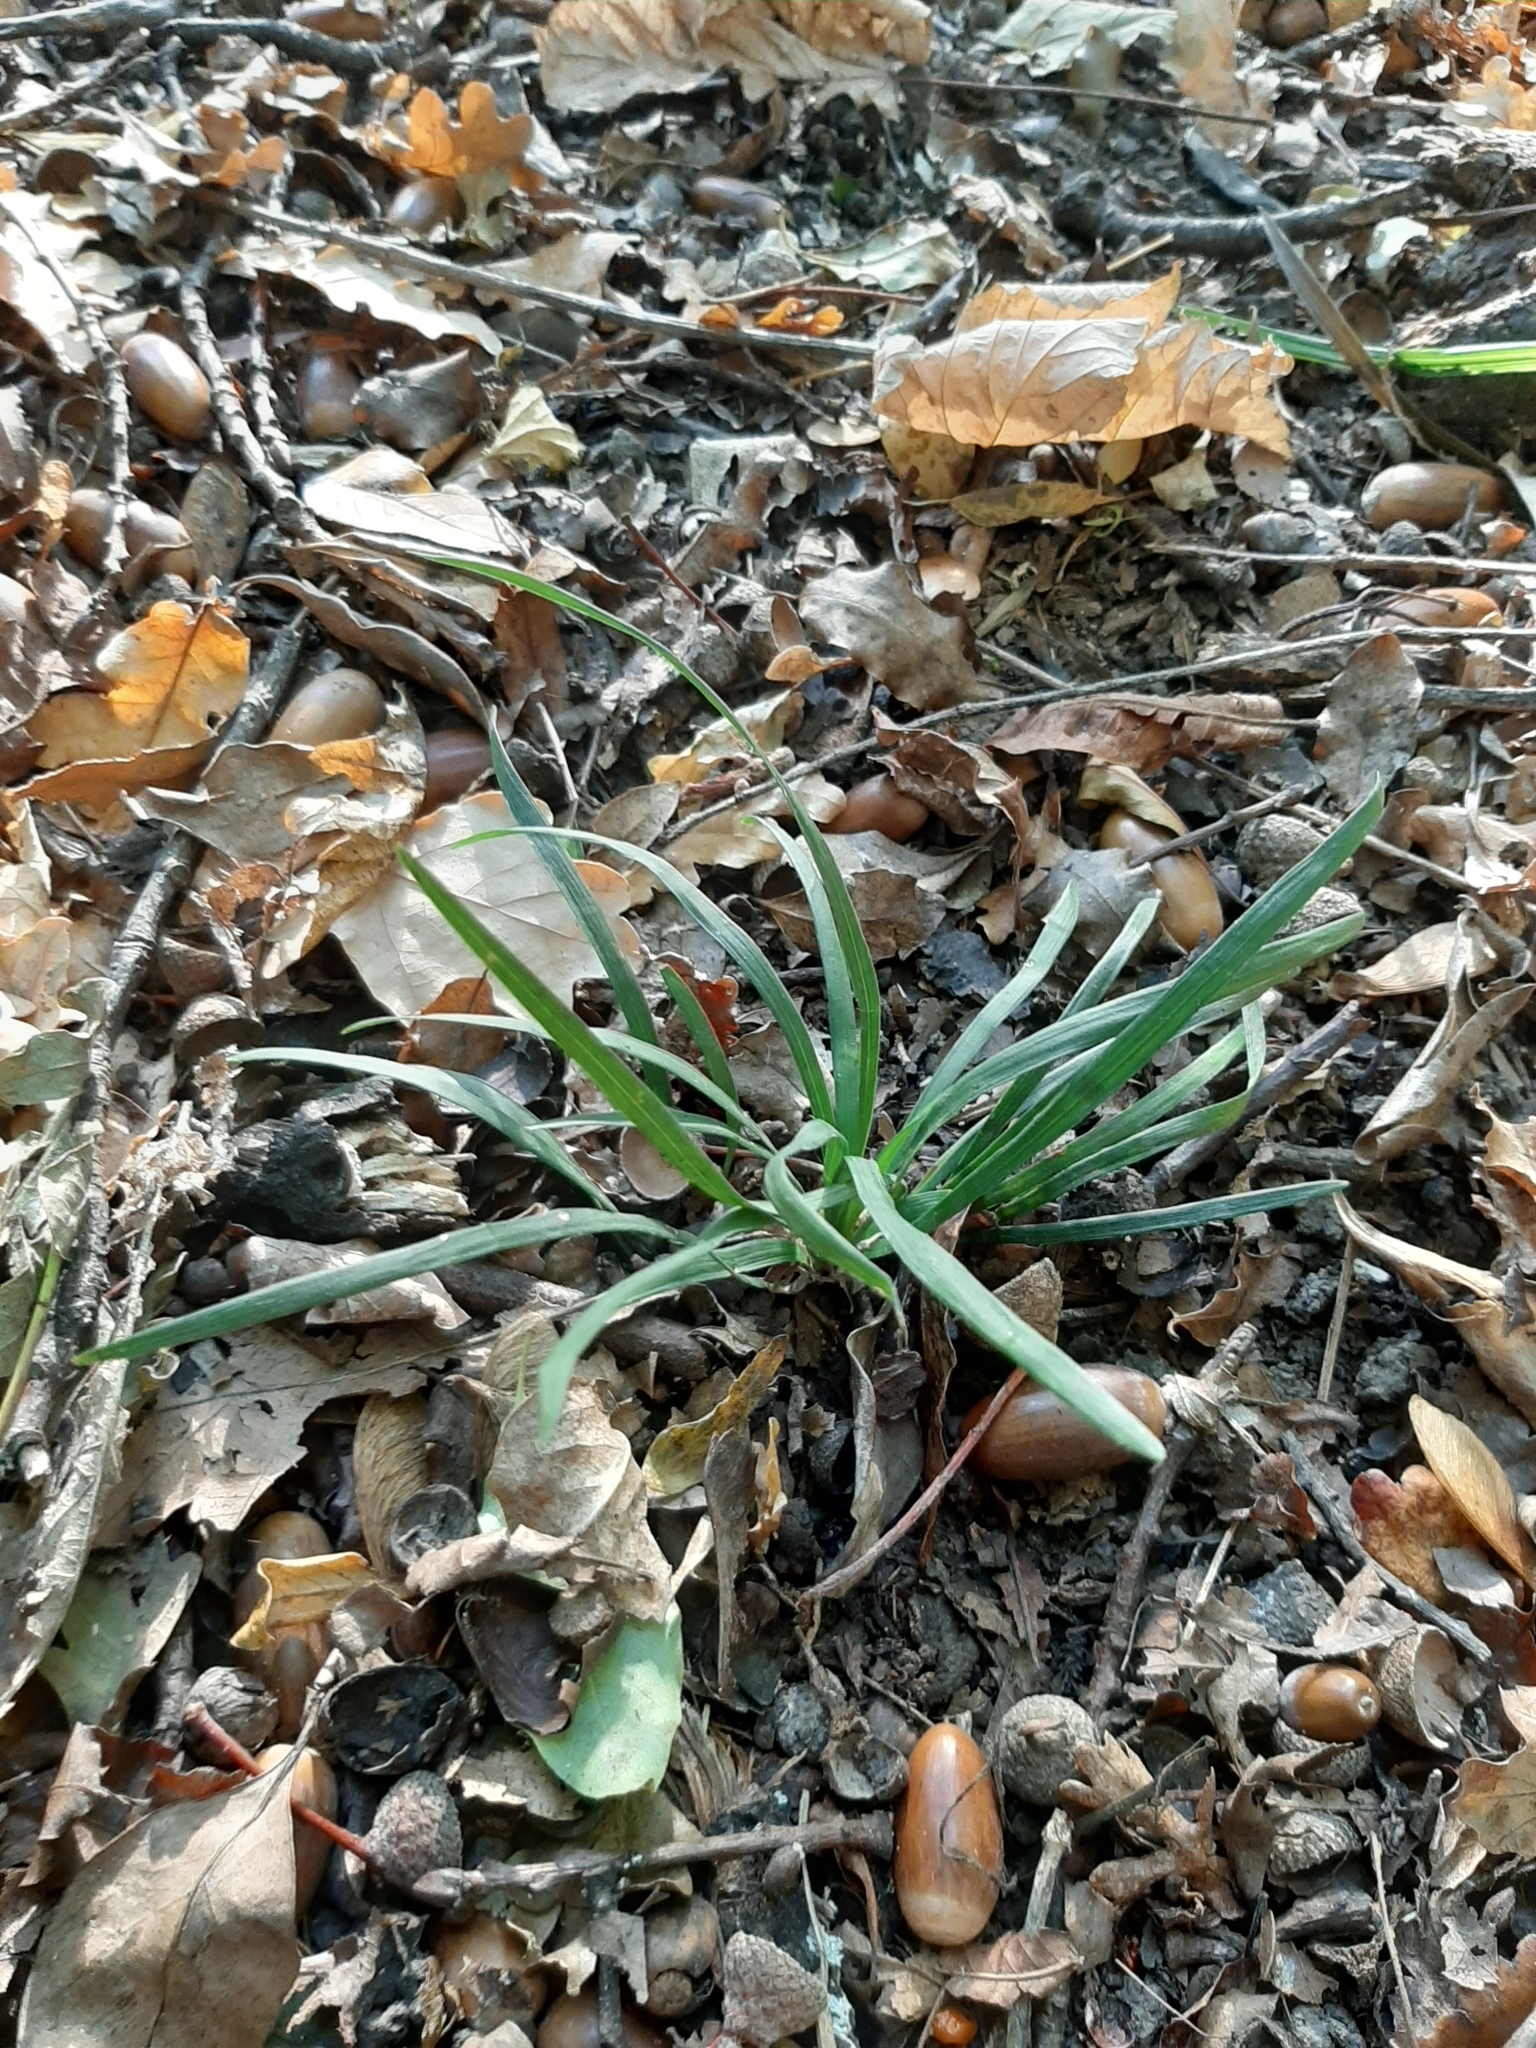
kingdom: Plantae
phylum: Tracheophyta
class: Liliopsida
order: Asparagales
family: Asparagaceae
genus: Ophiopogon
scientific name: Ophiopogon japonicus
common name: Dwarf lilyturf
